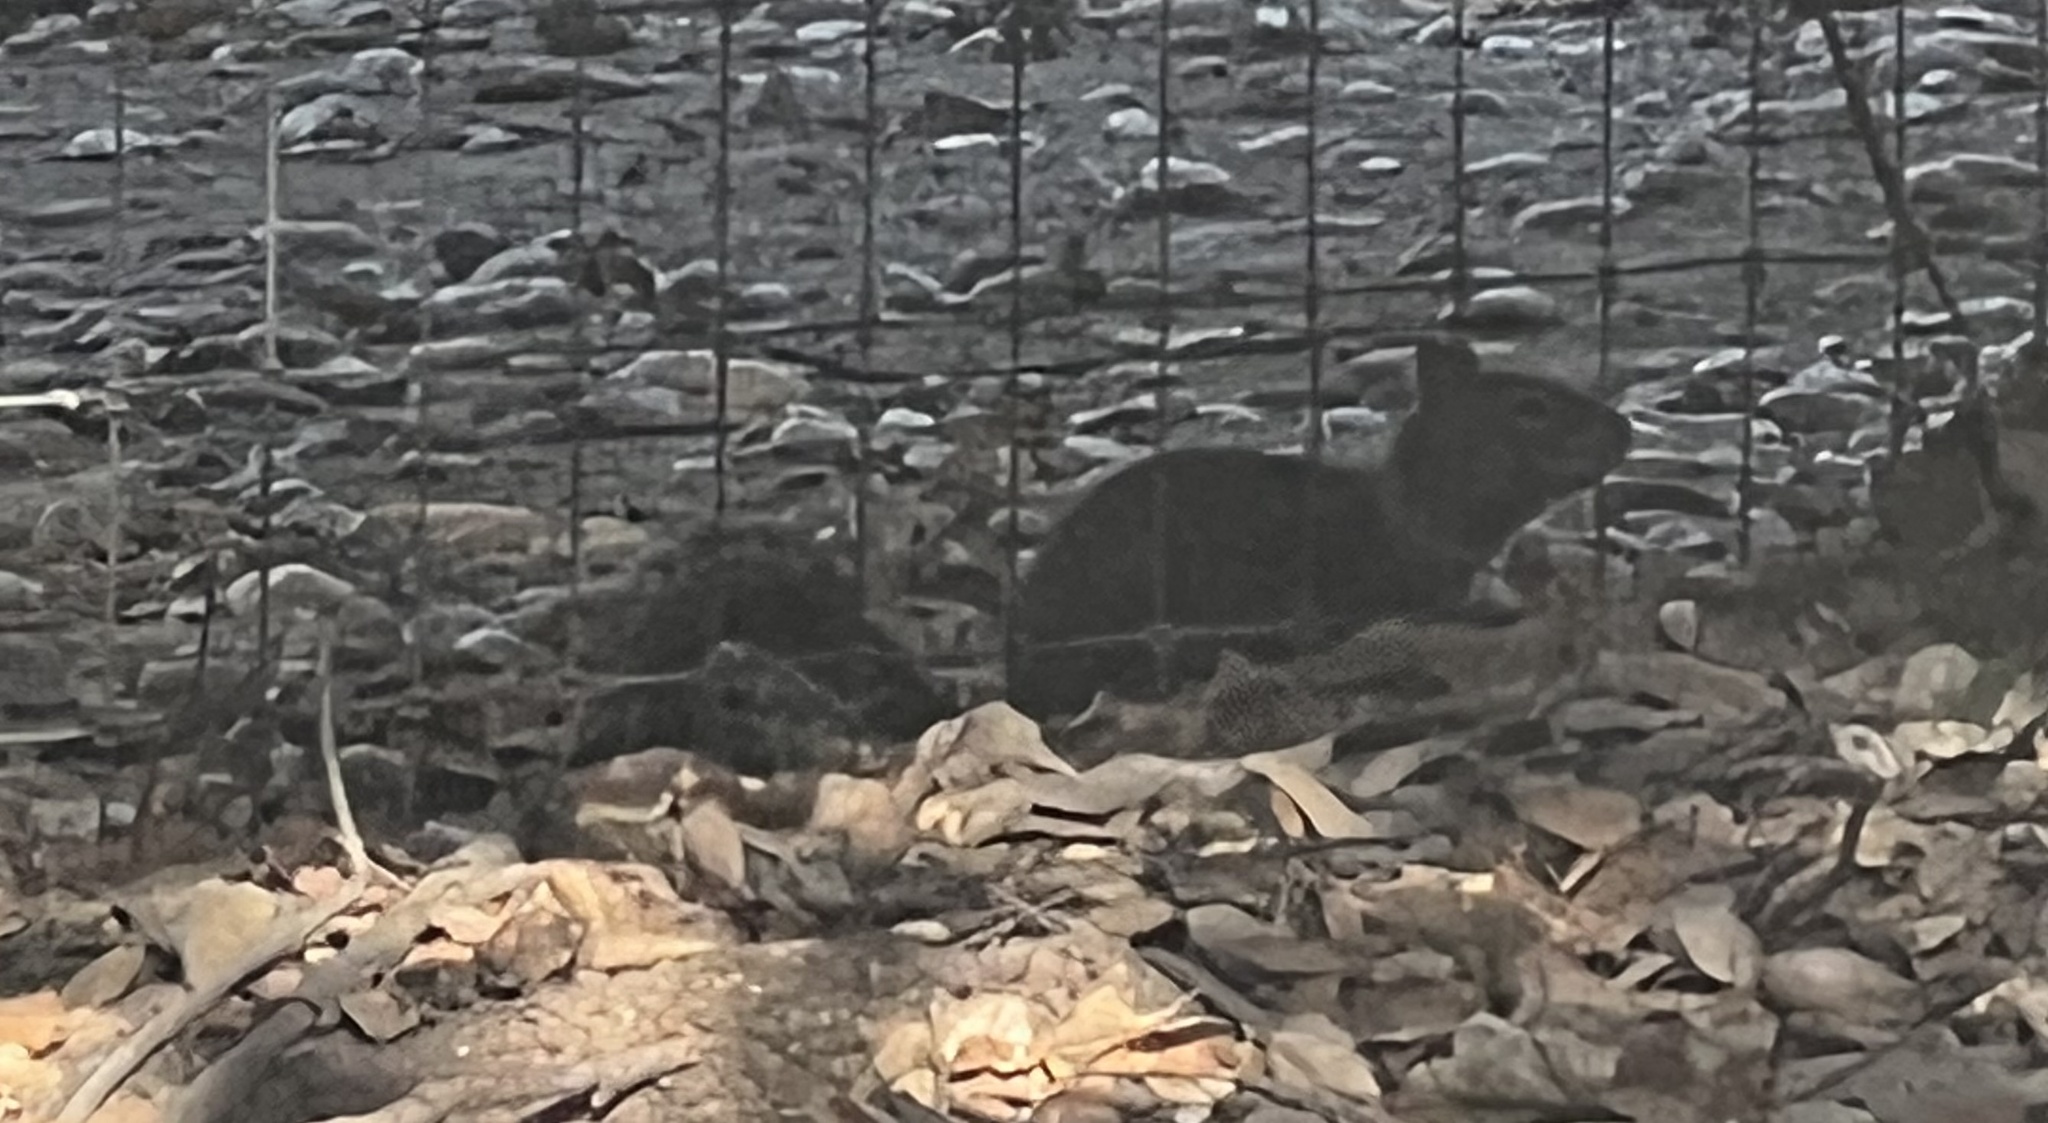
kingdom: Animalia
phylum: Chordata
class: Mammalia
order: Rodentia
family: Sciuridae
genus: Otospermophilus
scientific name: Otospermophilus beecheyi
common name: California ground squirrel
